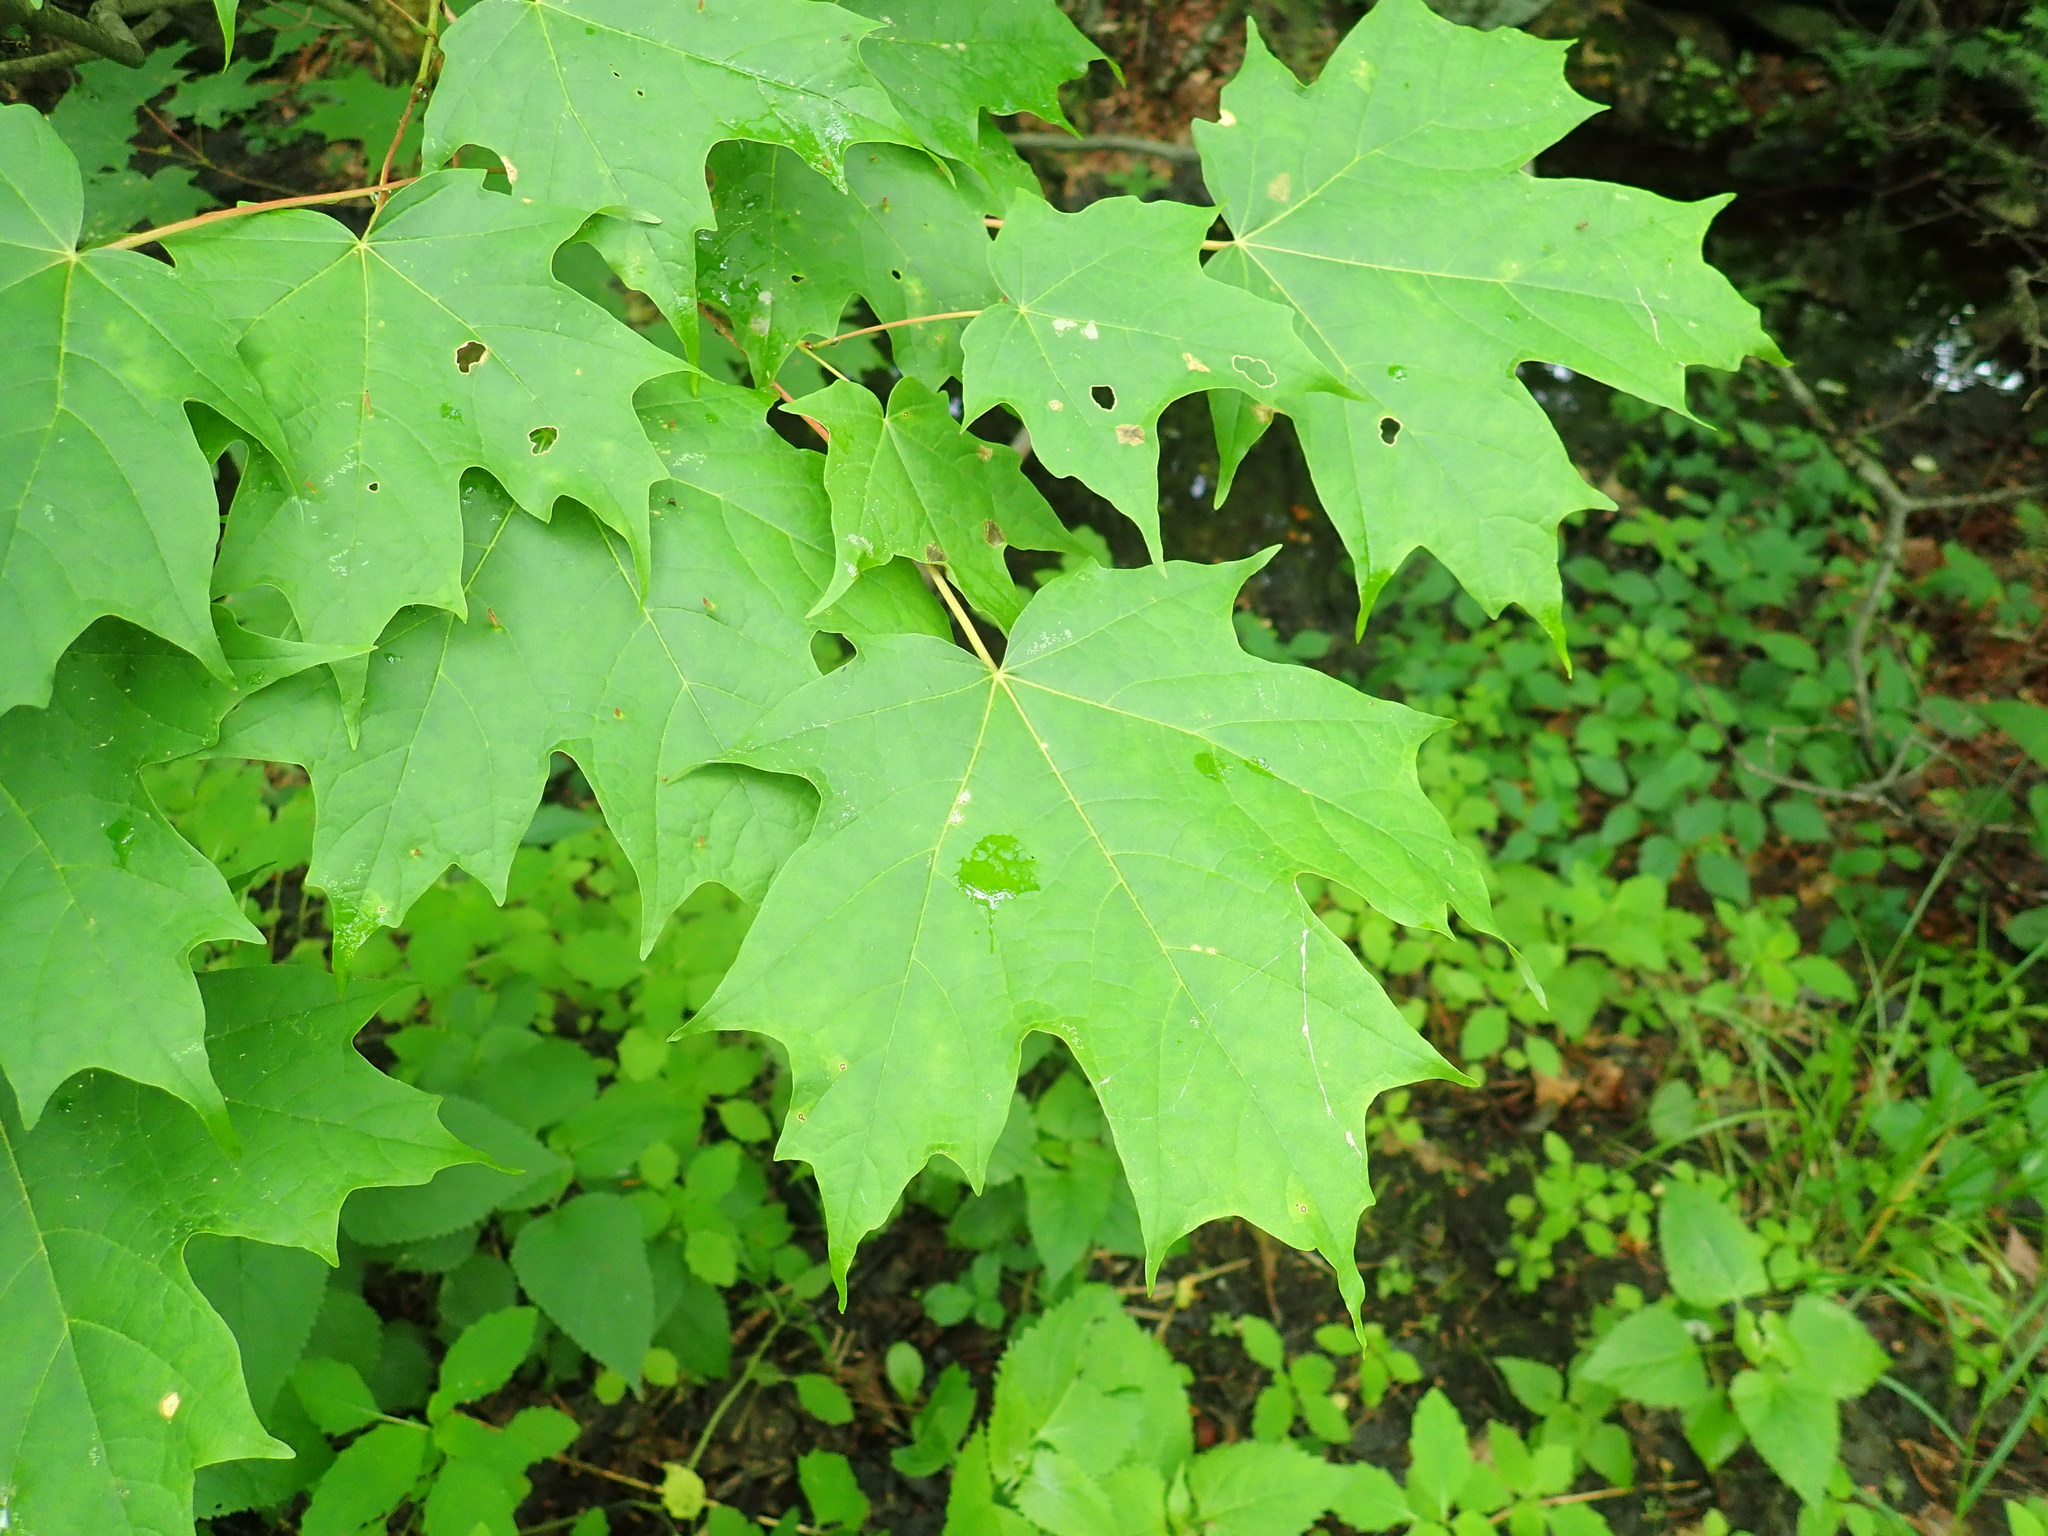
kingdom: Plantae
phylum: Tracheophyta
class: Magnoliopsida
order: Sapindales
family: Sapindaceae
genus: Acer
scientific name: Acer saccharum
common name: Sugar maple
